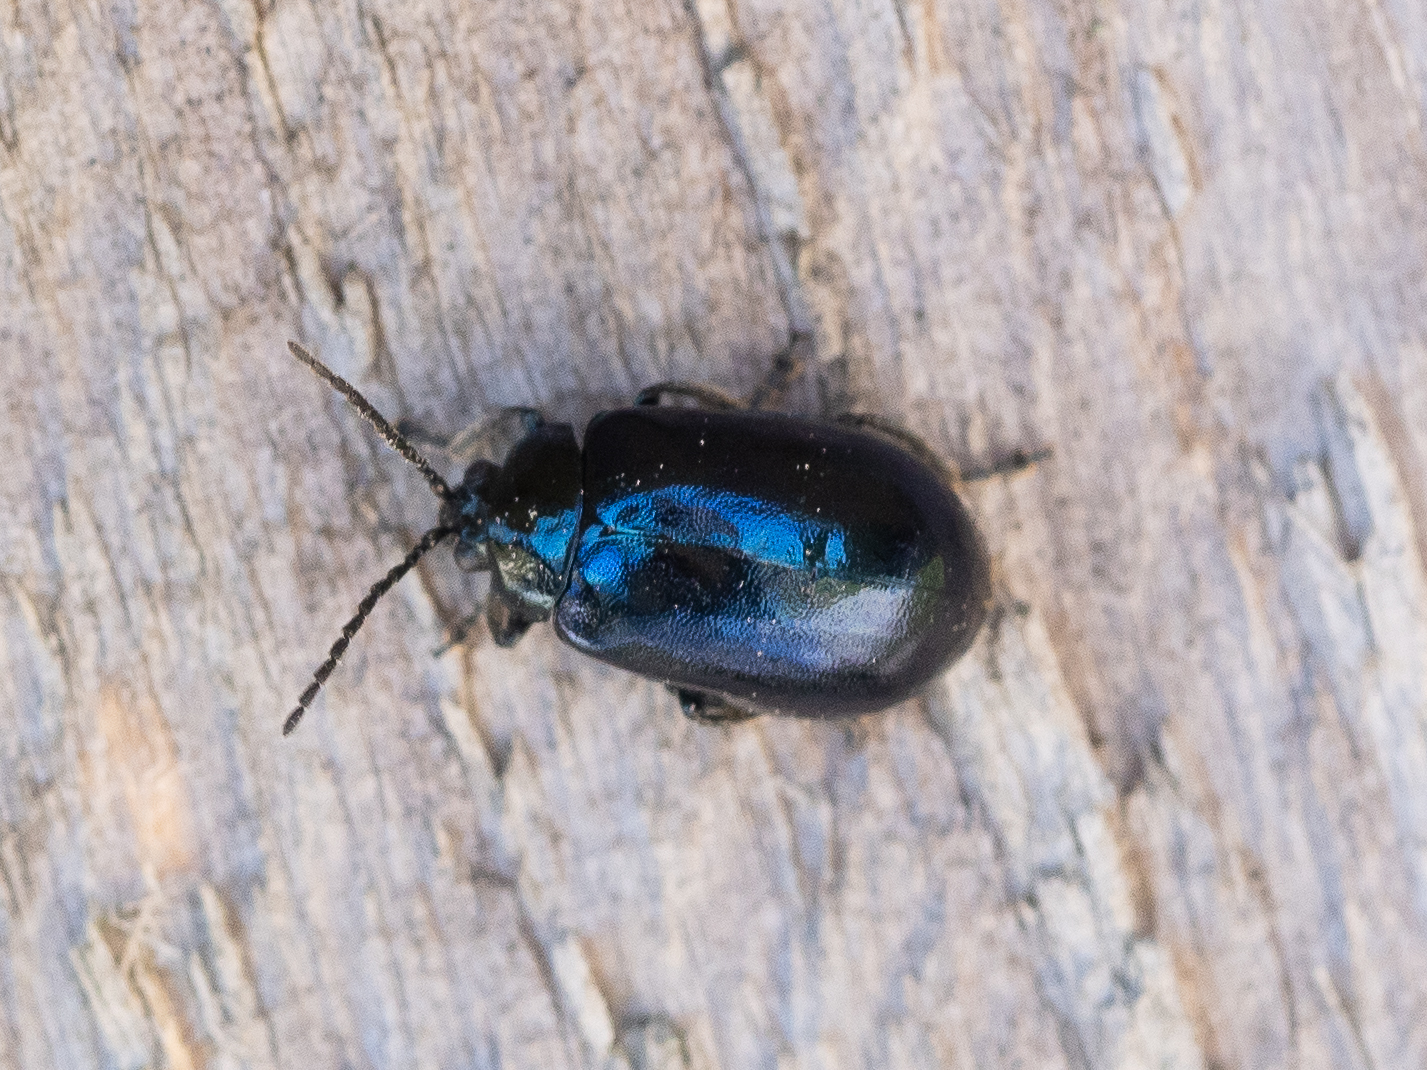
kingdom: Animalia
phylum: Arthropoda
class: Insecta
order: Coleoptera
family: Chrysomelidae
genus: Agelastica
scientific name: Agelastica alni
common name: Alder leaf beetle
